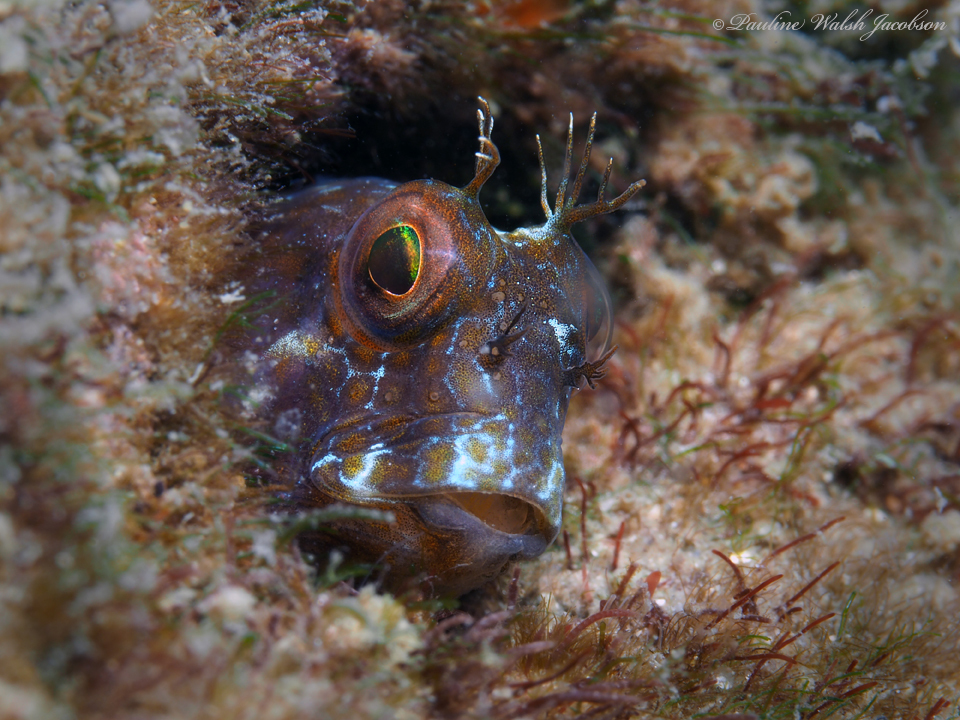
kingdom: Animalia
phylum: Chordata
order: Perciformes
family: Blenniidae
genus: Parablennius
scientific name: Parablennius marmoreus
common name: Seaweed blenny
